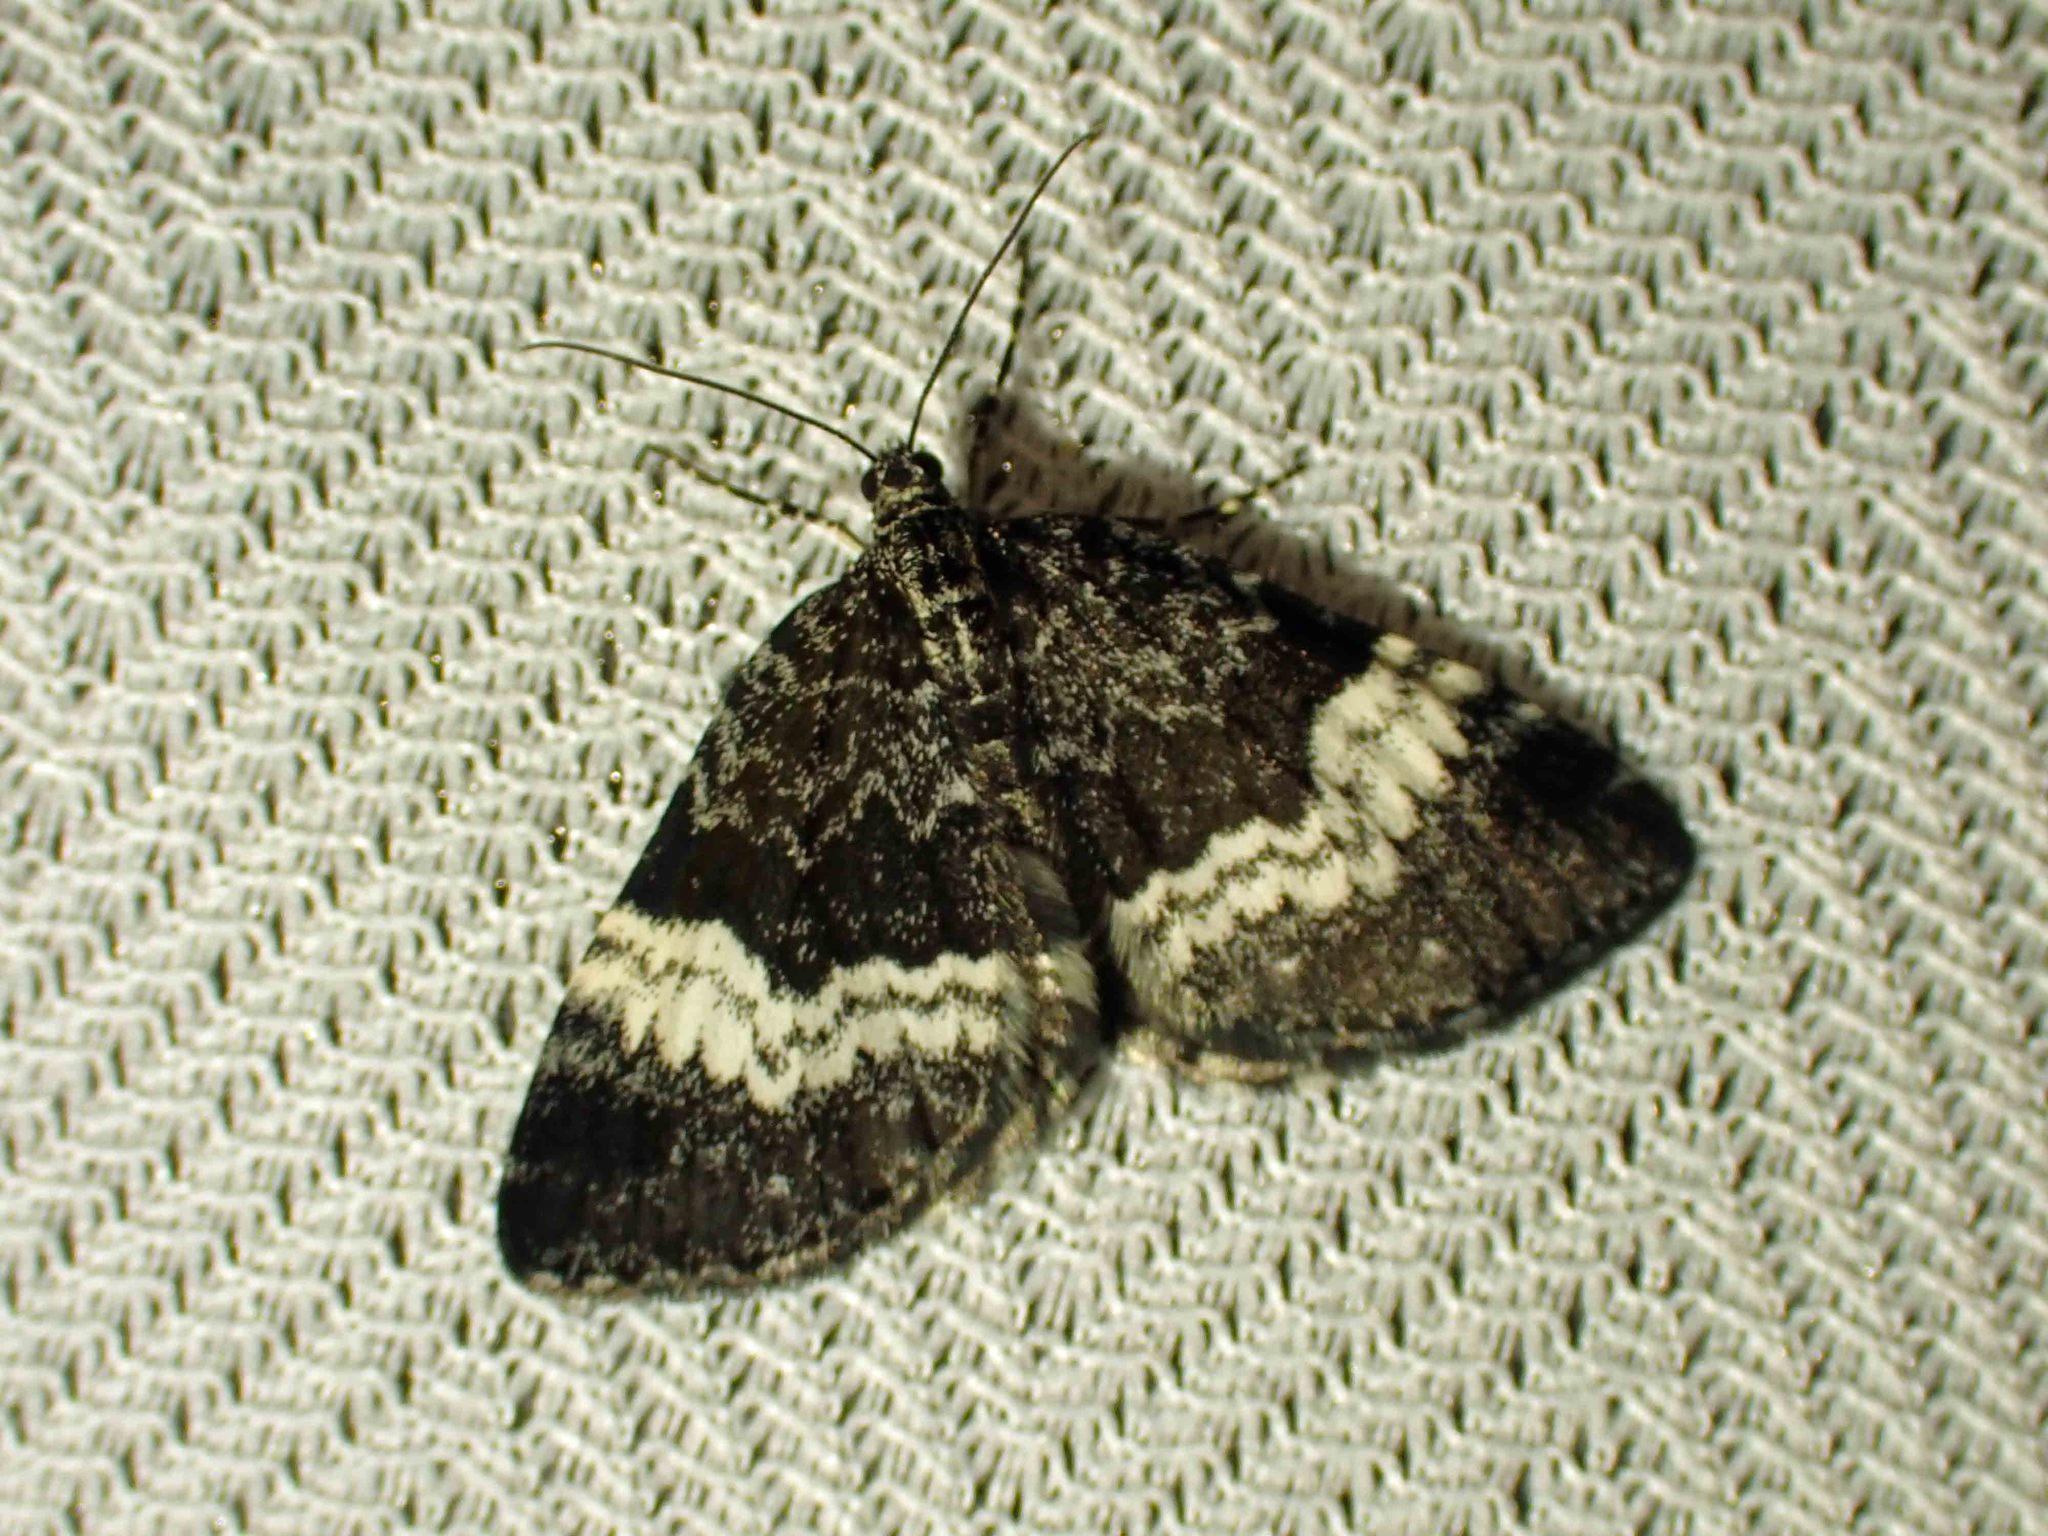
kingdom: Animalia
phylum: Arthropoda
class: Insecta
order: Lepidoptera
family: Geometridae
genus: Spargania
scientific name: Spargania luctuata
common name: White-banded carpet
